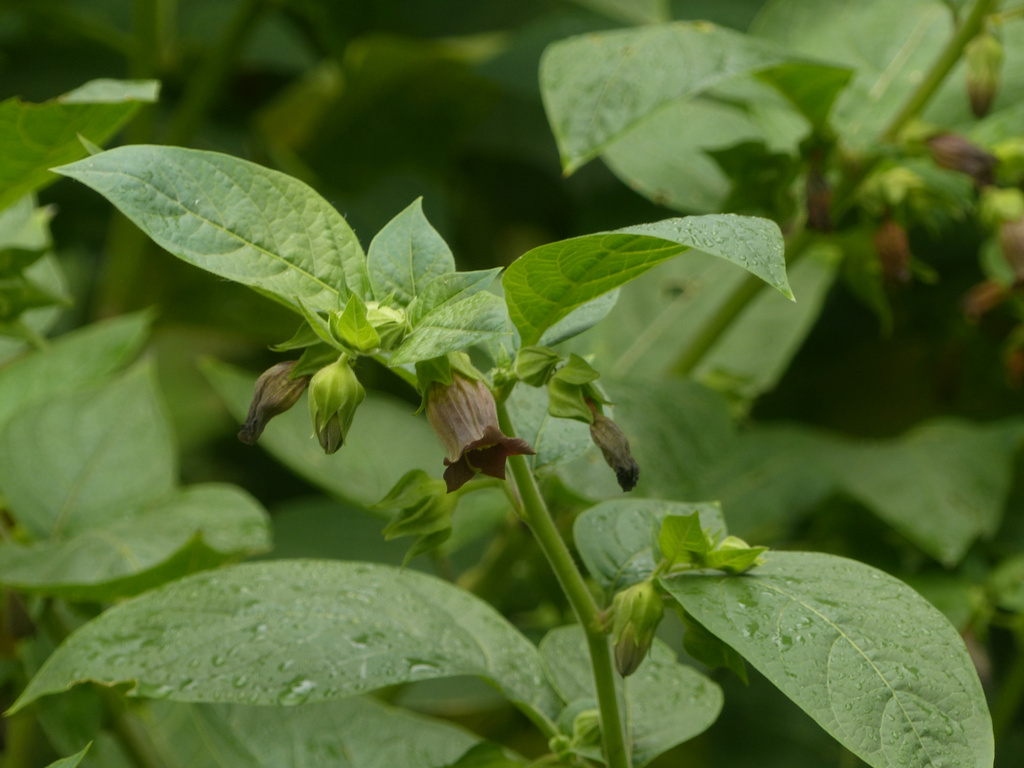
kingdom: Plantae
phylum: Tracheophyta
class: Magnoliopsida
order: Solanales
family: Solanaceae
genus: Atropa
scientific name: Atropa belladonna
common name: Deadly nightshade
